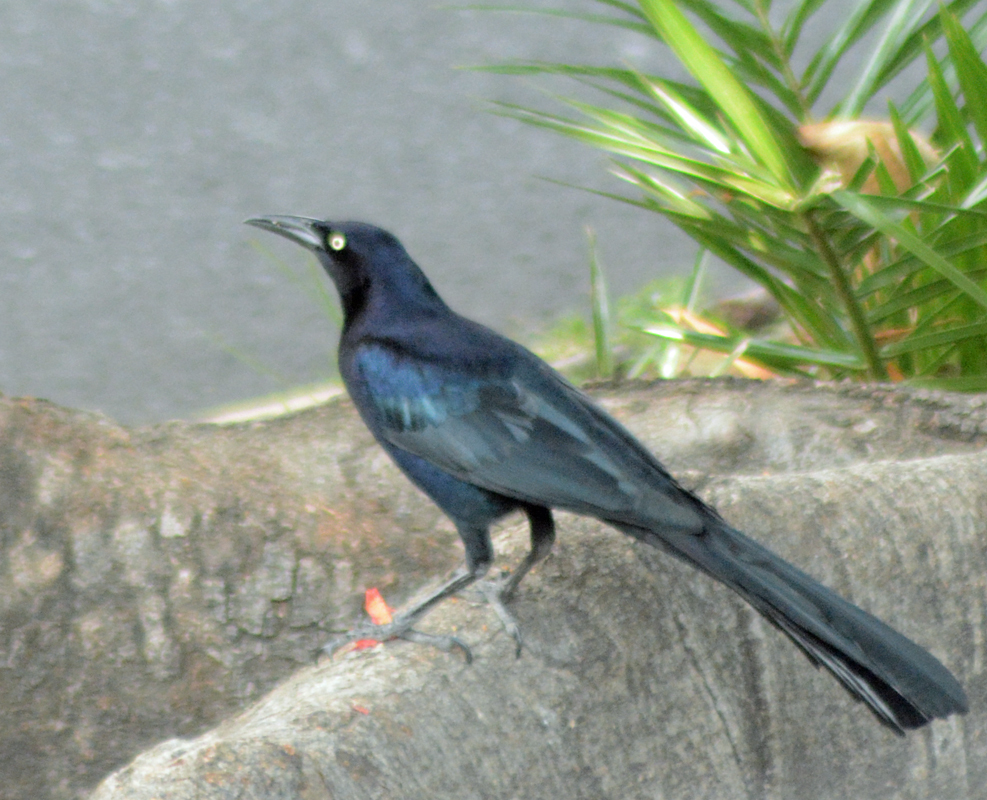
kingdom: Animalia
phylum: Chordata
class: Aves
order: Passeriformes
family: Icteridae
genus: Quiscalus
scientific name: Quiscalus mexicanus
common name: Great-tailed grackle
